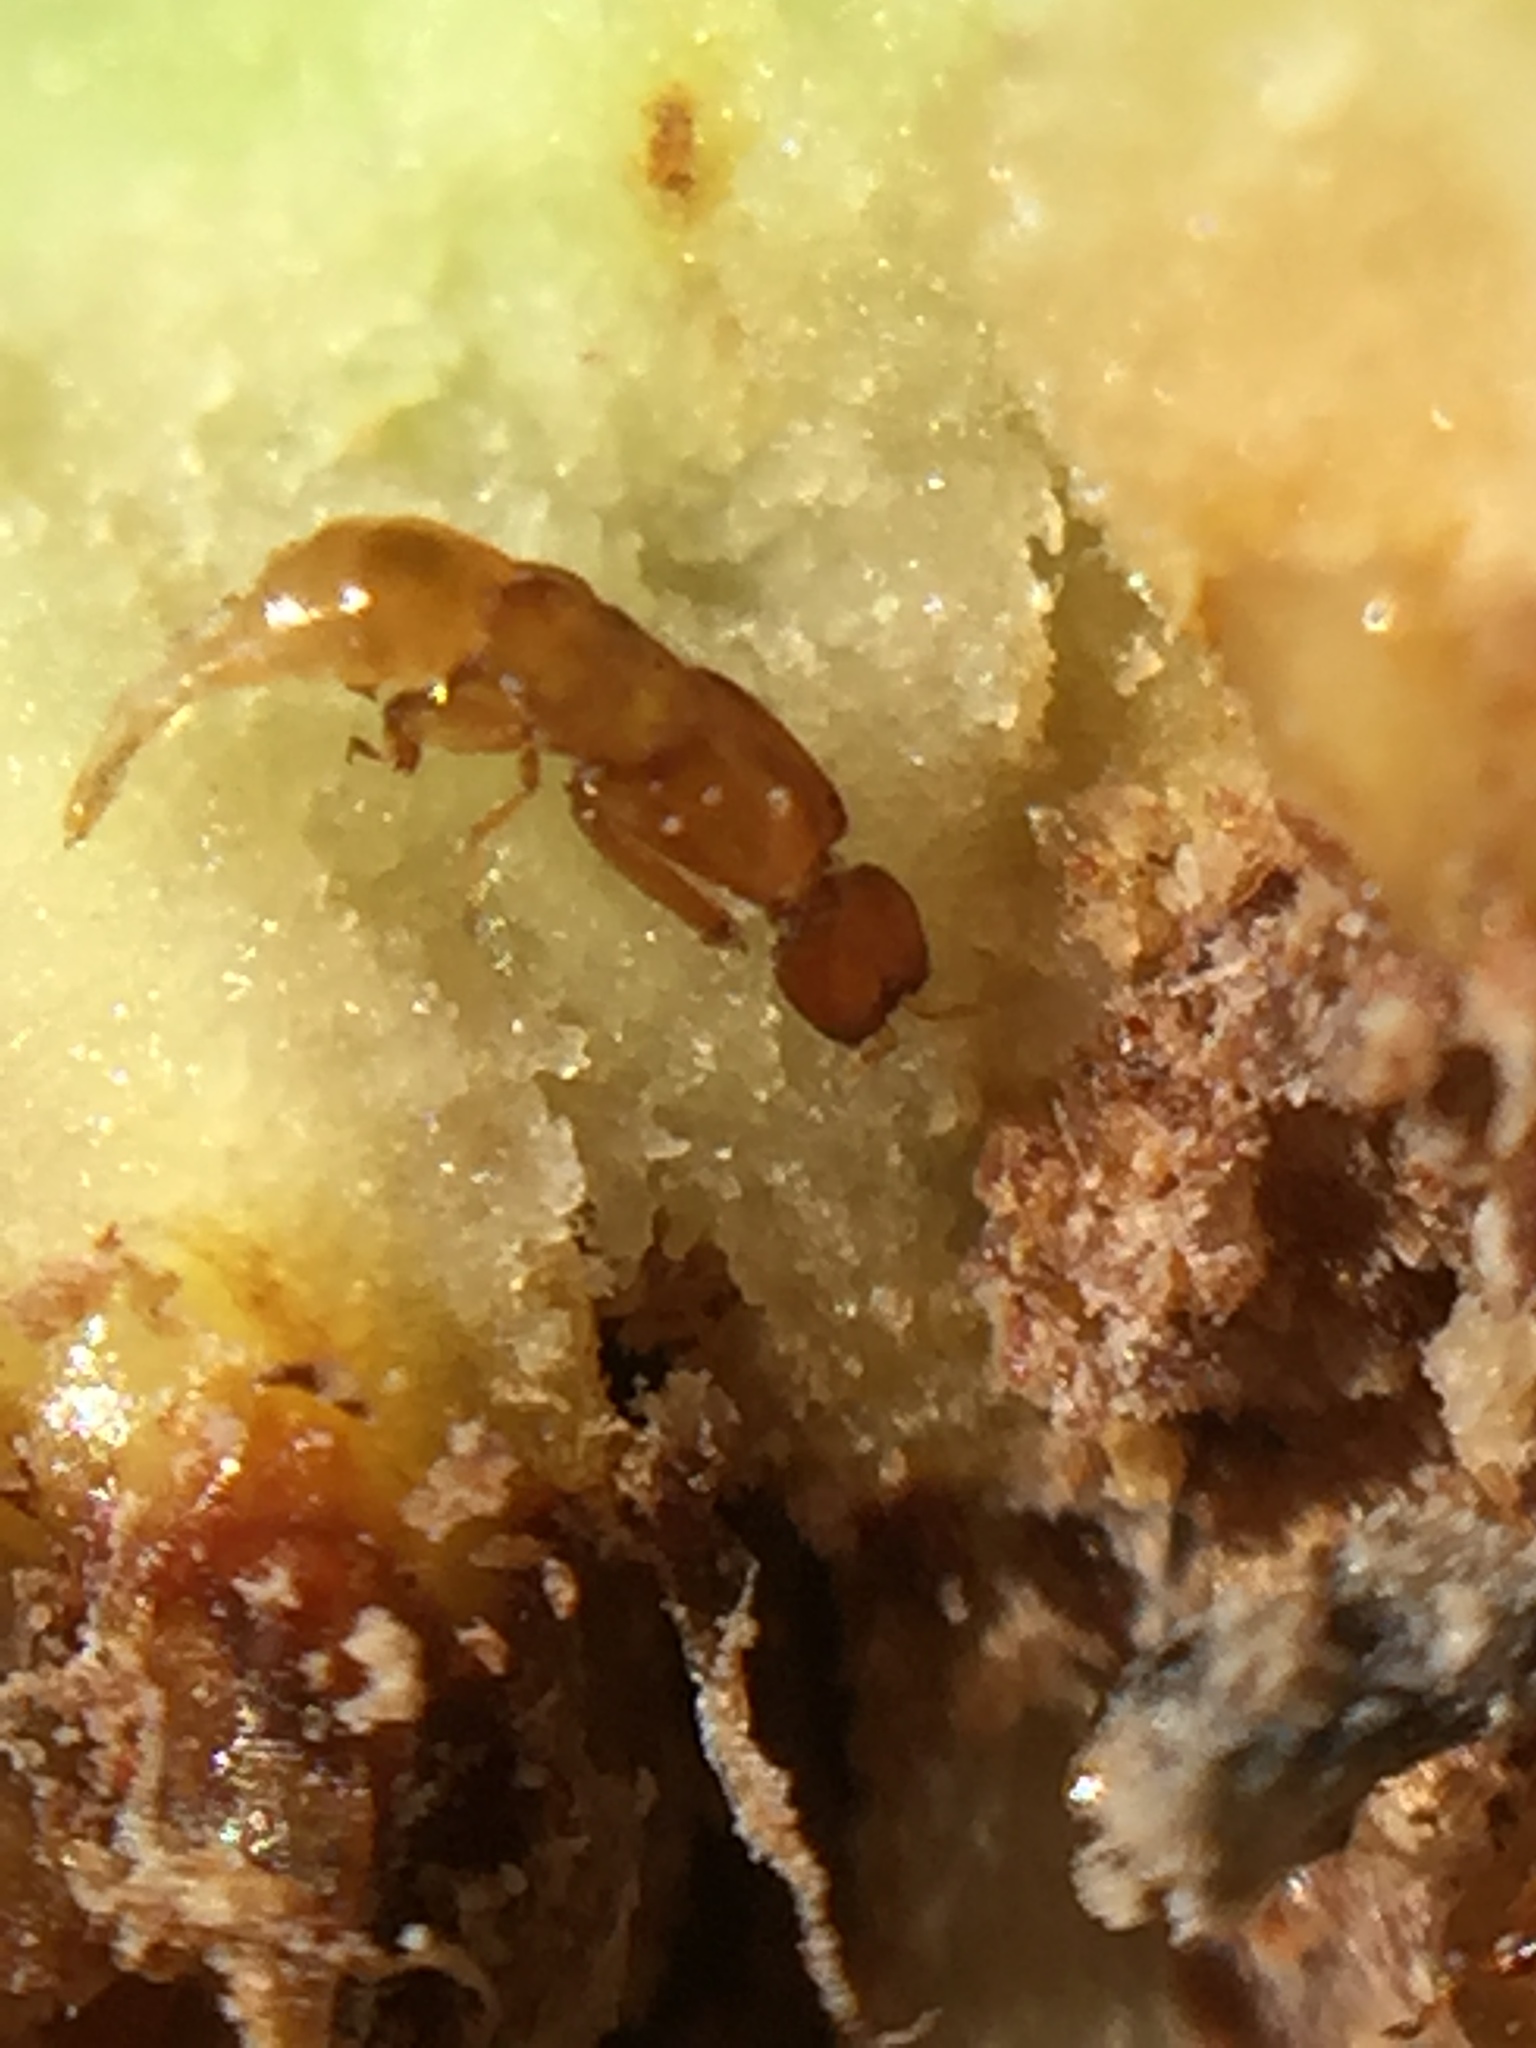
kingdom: Animalia
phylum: Arthropoda
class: Insecta
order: Hymenoptera
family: Agaonidae
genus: Pleistodontes
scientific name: Pleistodontes froggatti
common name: Fig wasp
